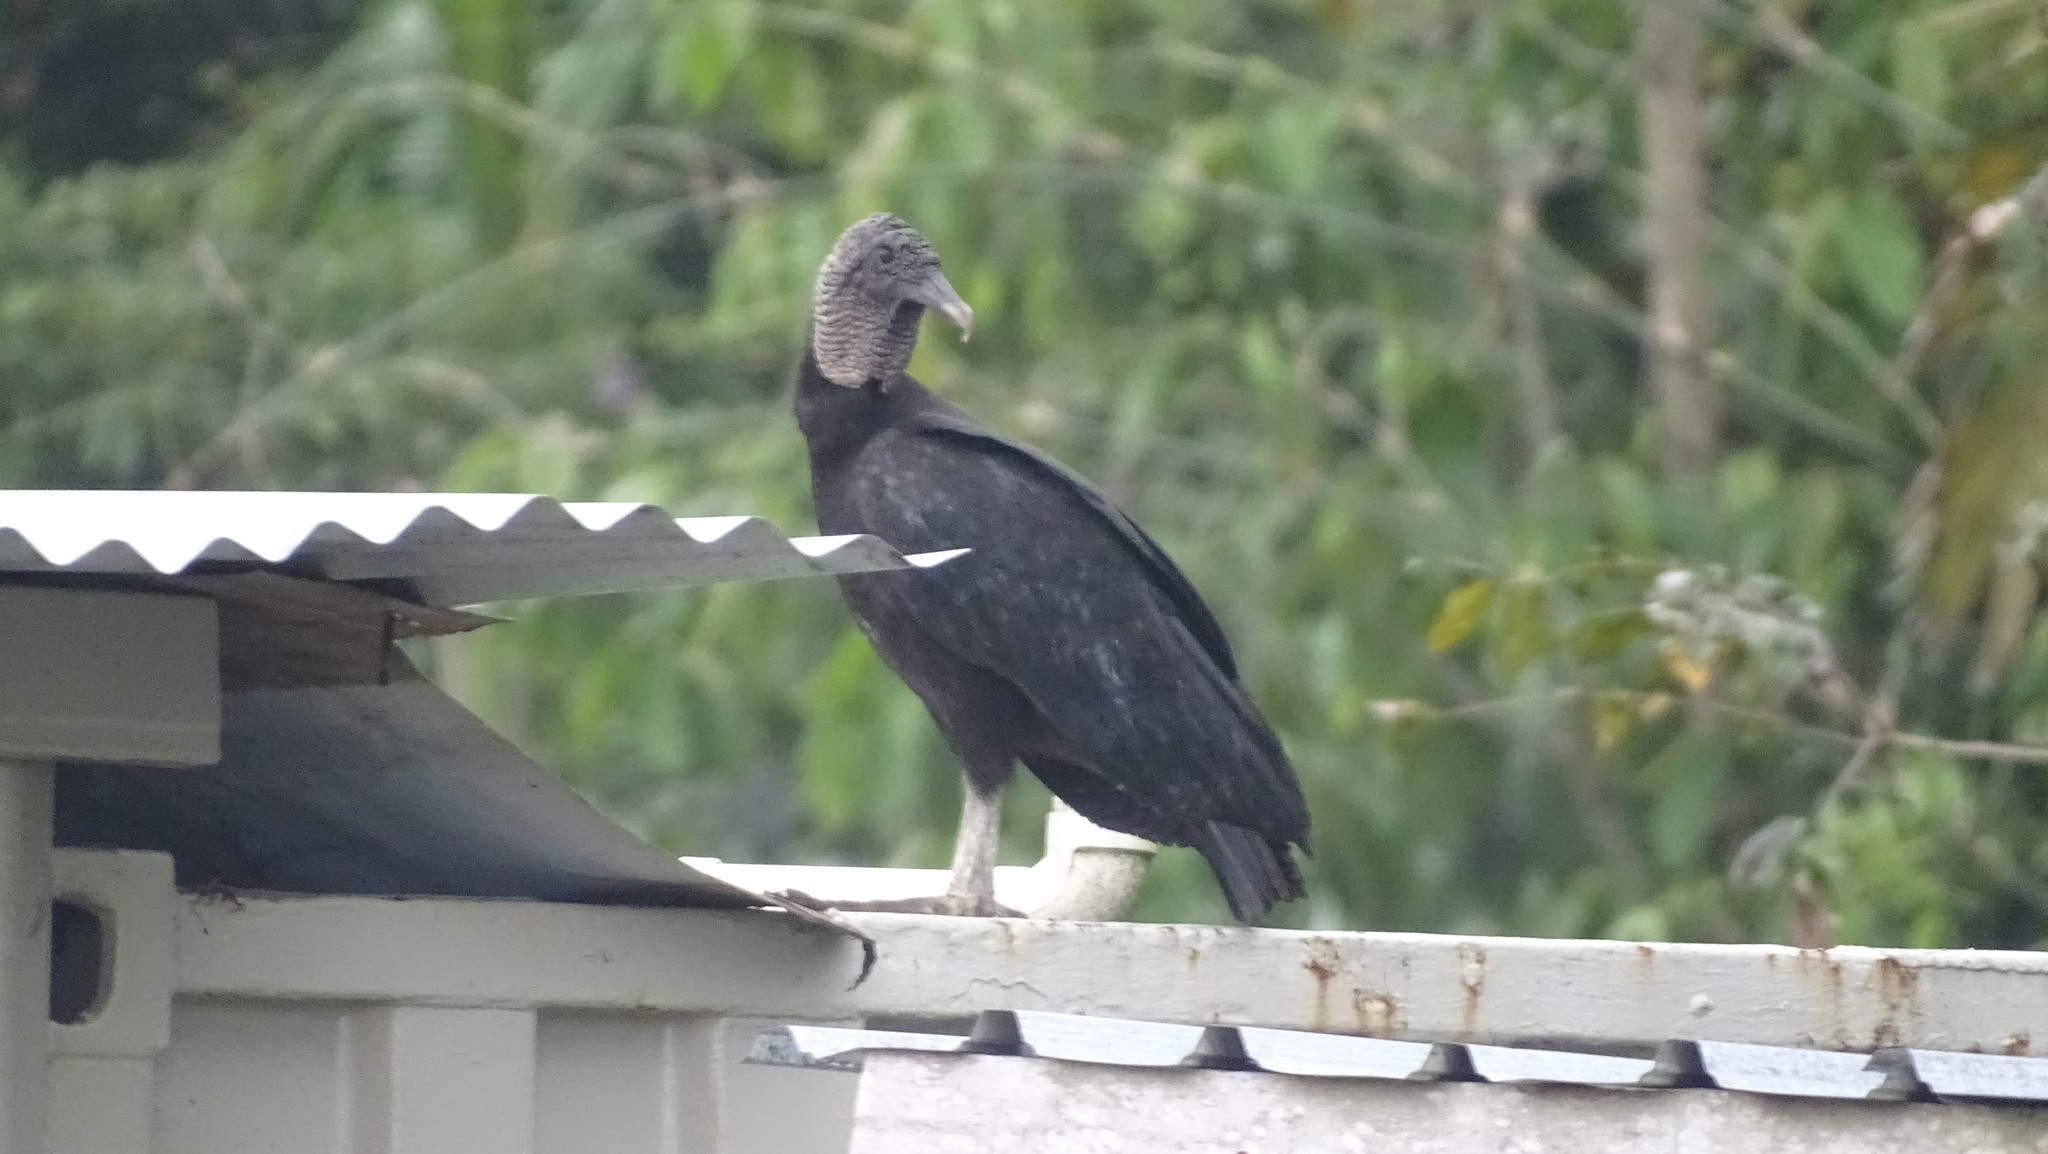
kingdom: Animalia
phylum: Chordata
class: Aves
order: Accipitriformes
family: Cathartidae
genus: Coragyps
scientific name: Coragyps atratus
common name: Black vulture
